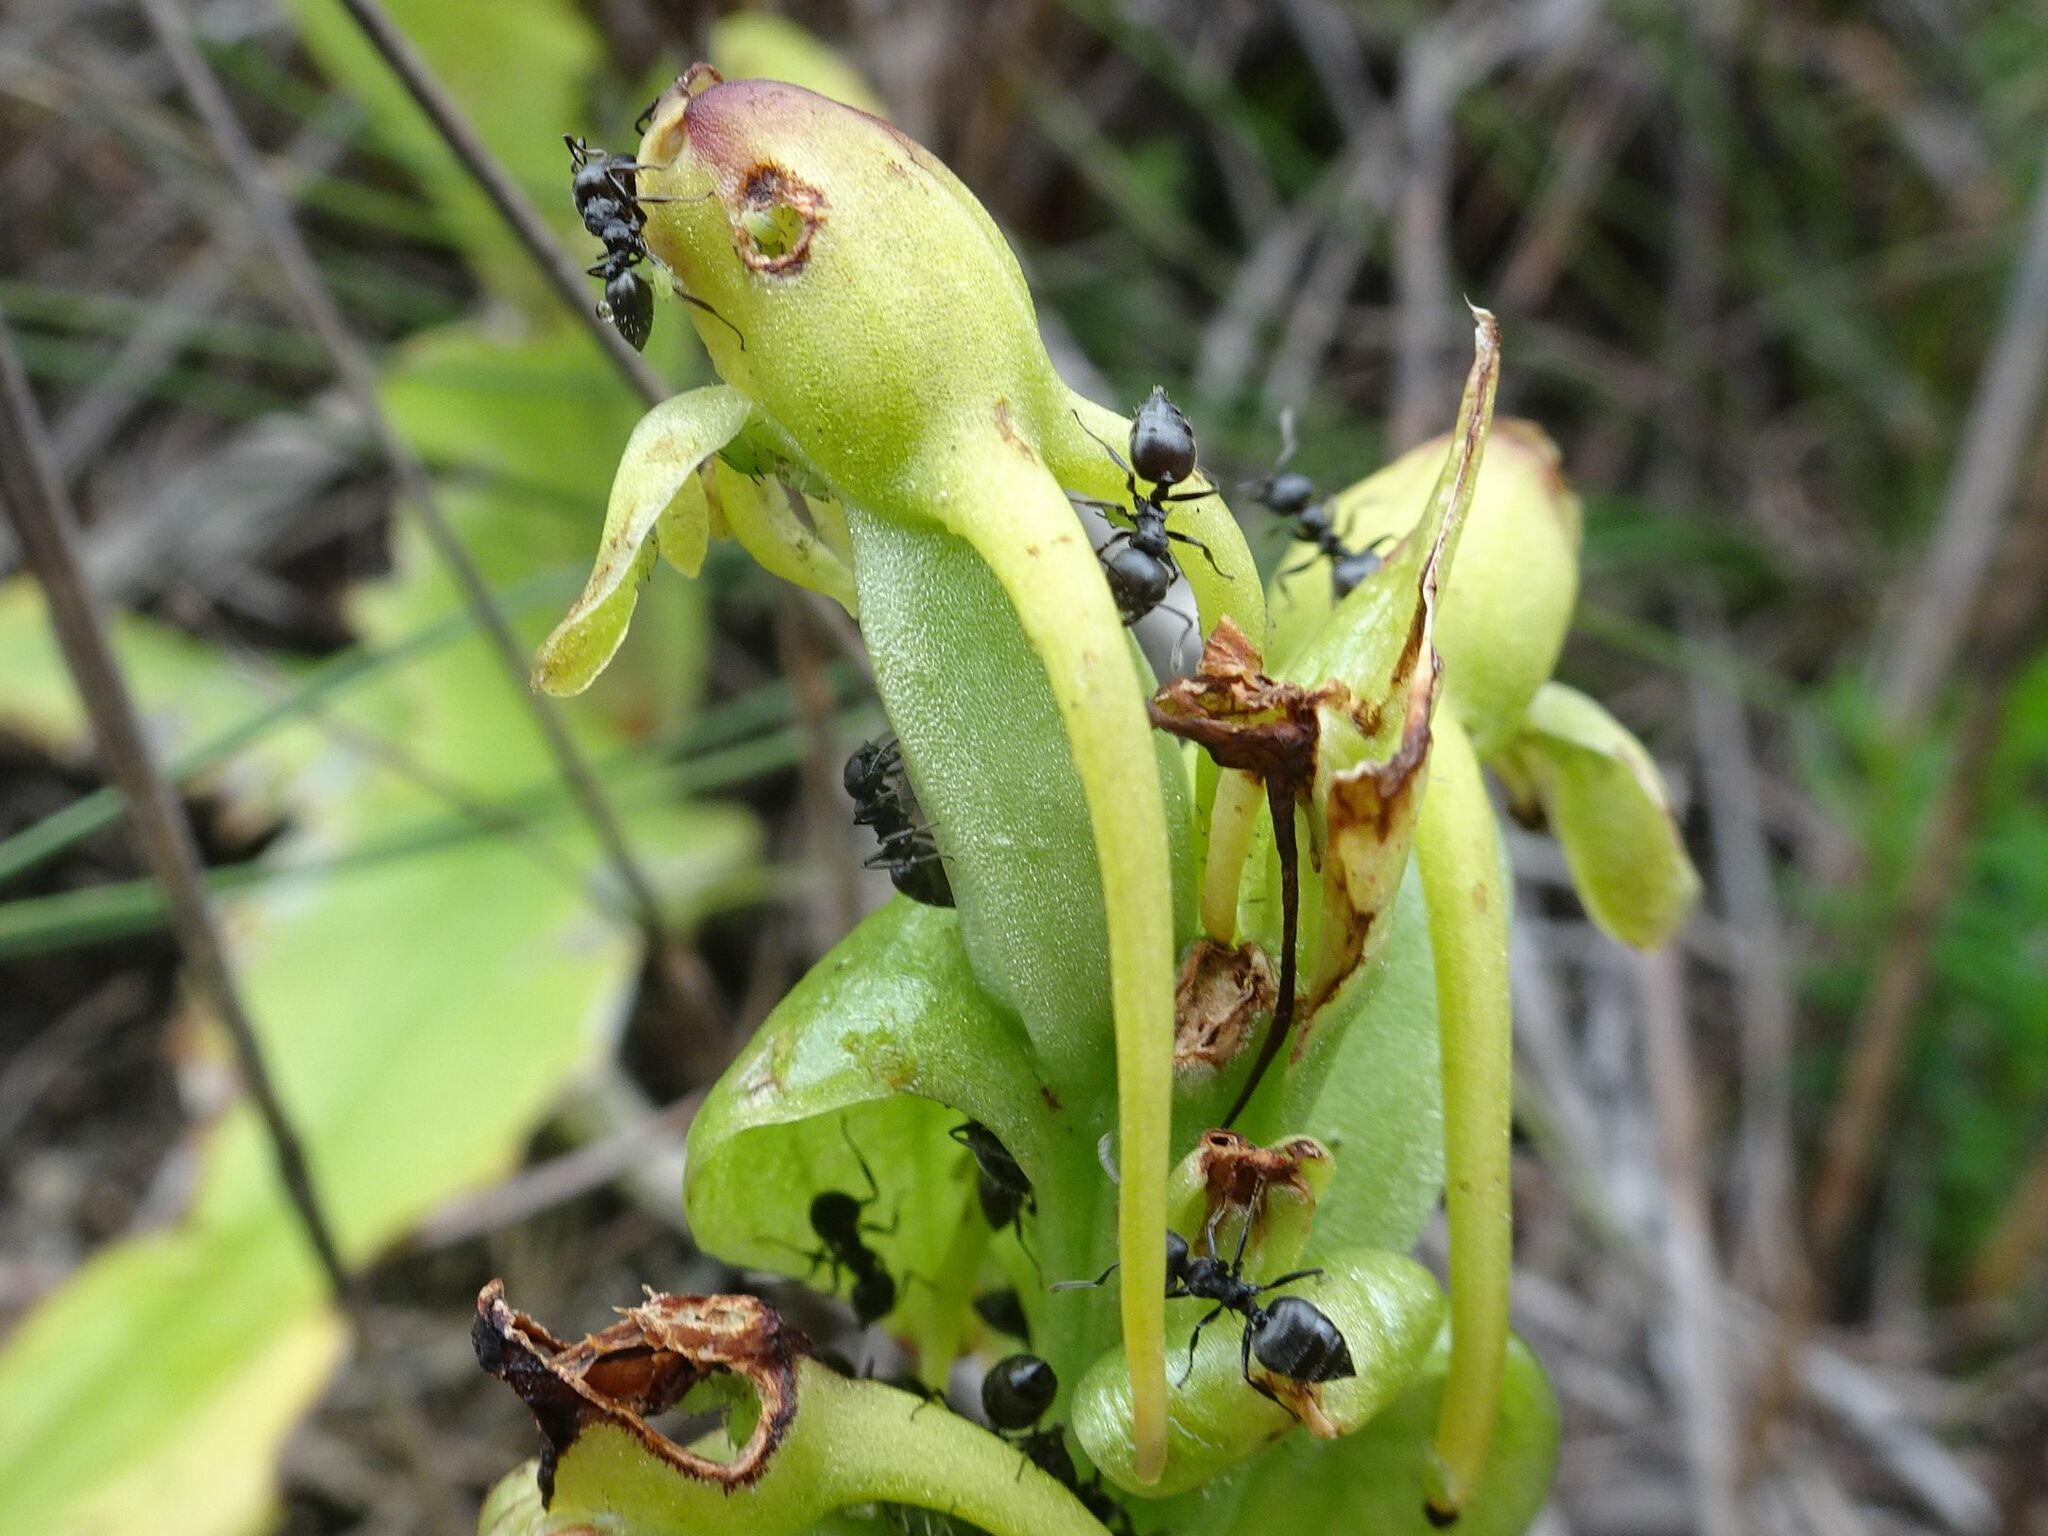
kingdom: Animalia
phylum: Arthropoda
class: Insecta
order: Hymenoptera
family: Formicidae
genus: Crematogaster
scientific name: Crematogaster peringueyi
